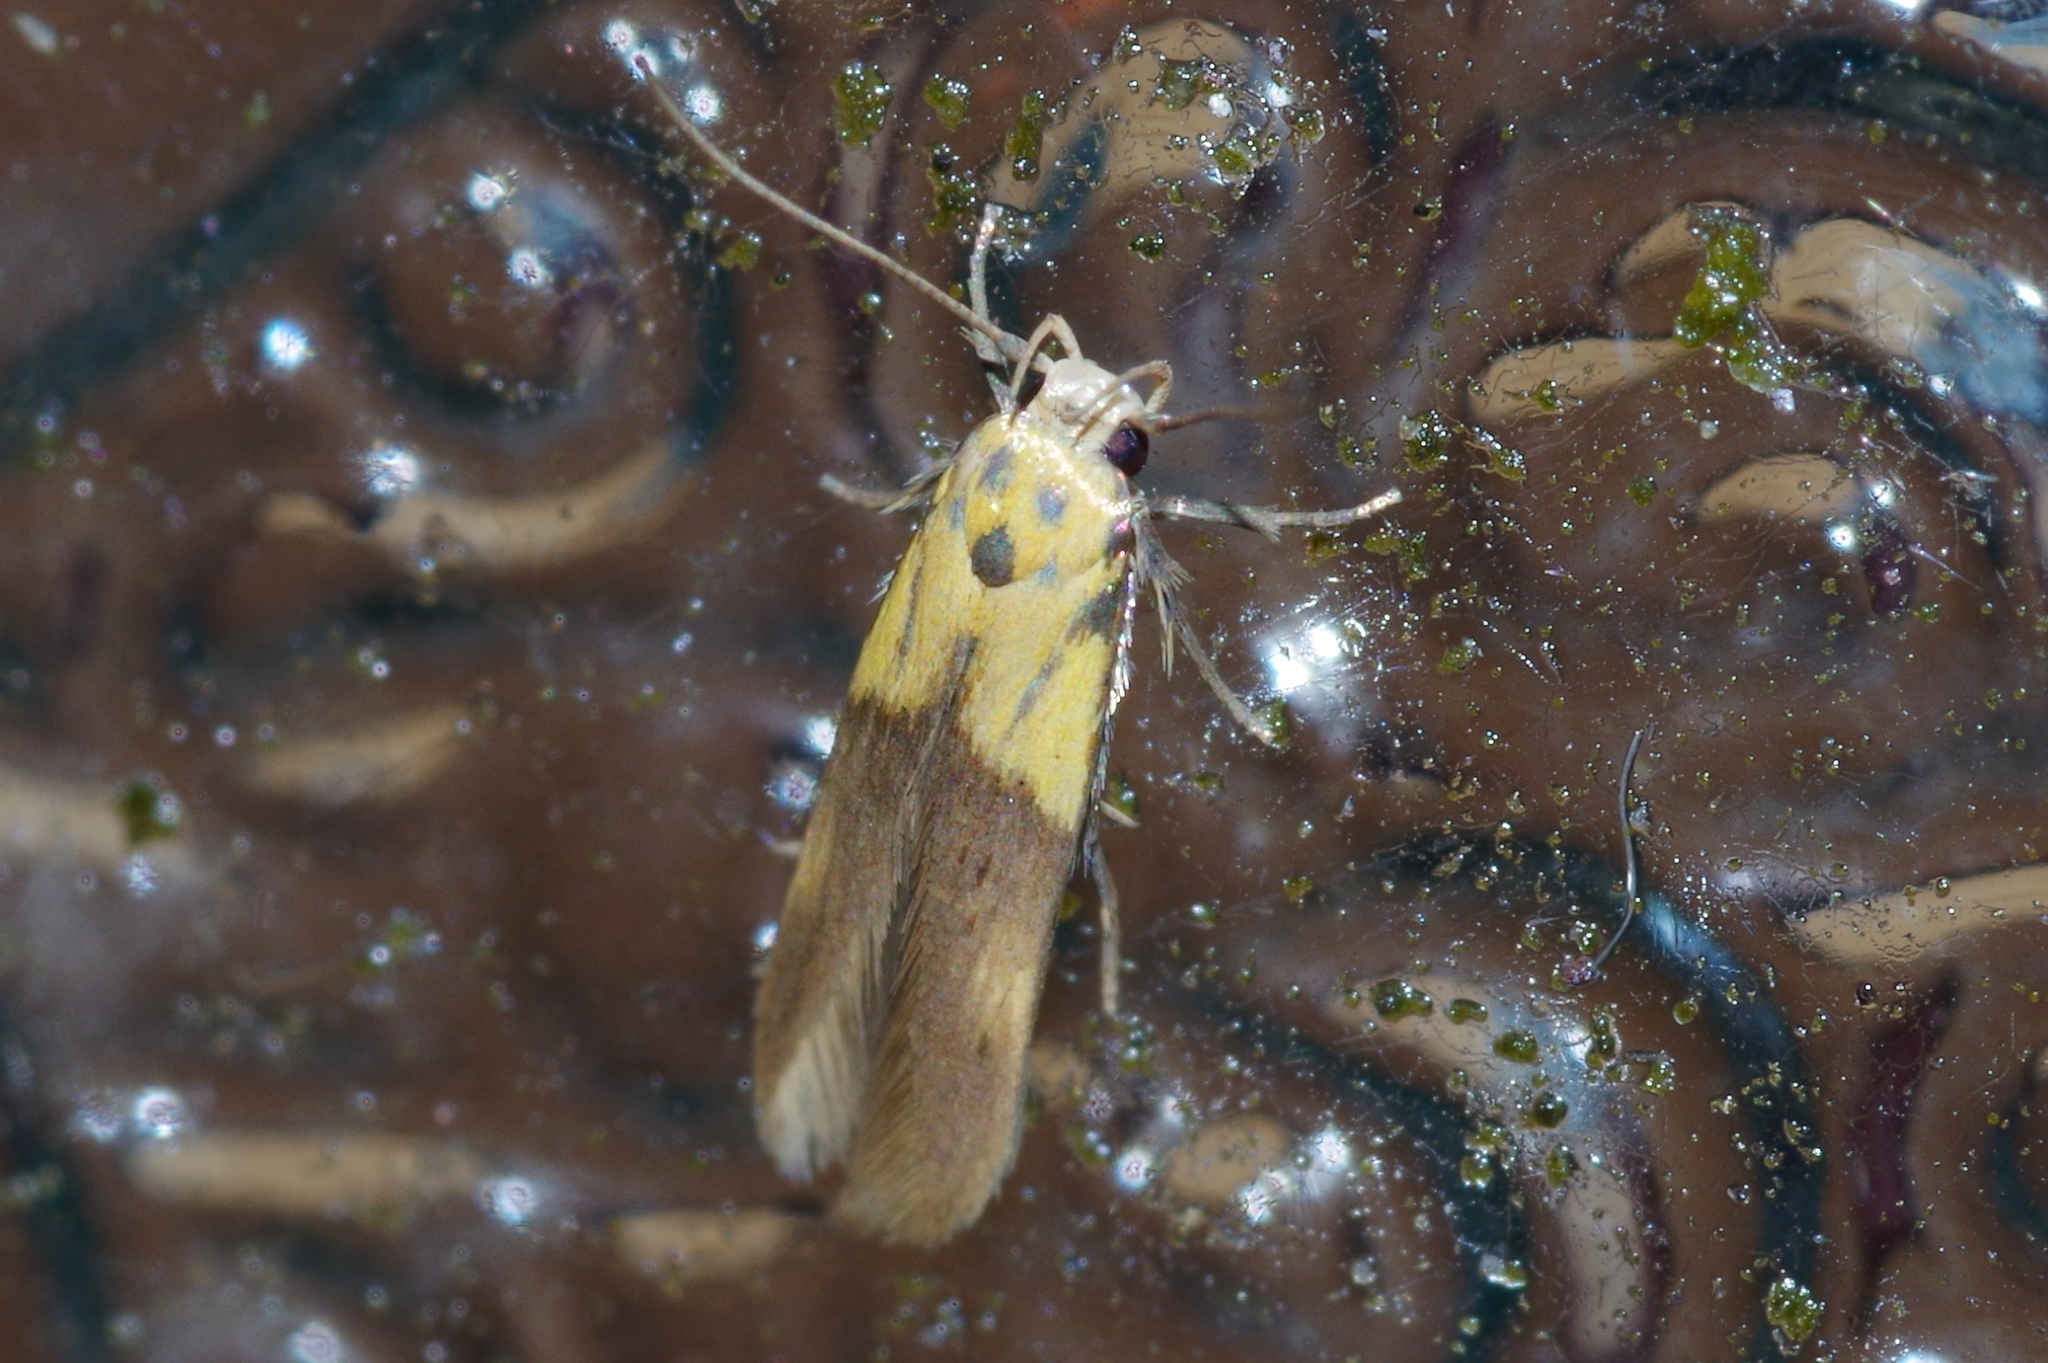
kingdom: Animalia
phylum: Arthropoda
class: Insecta
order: Lepidoptera
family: Stathmopodidae
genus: Stathmopoda
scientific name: Stathmopoda auriferella
